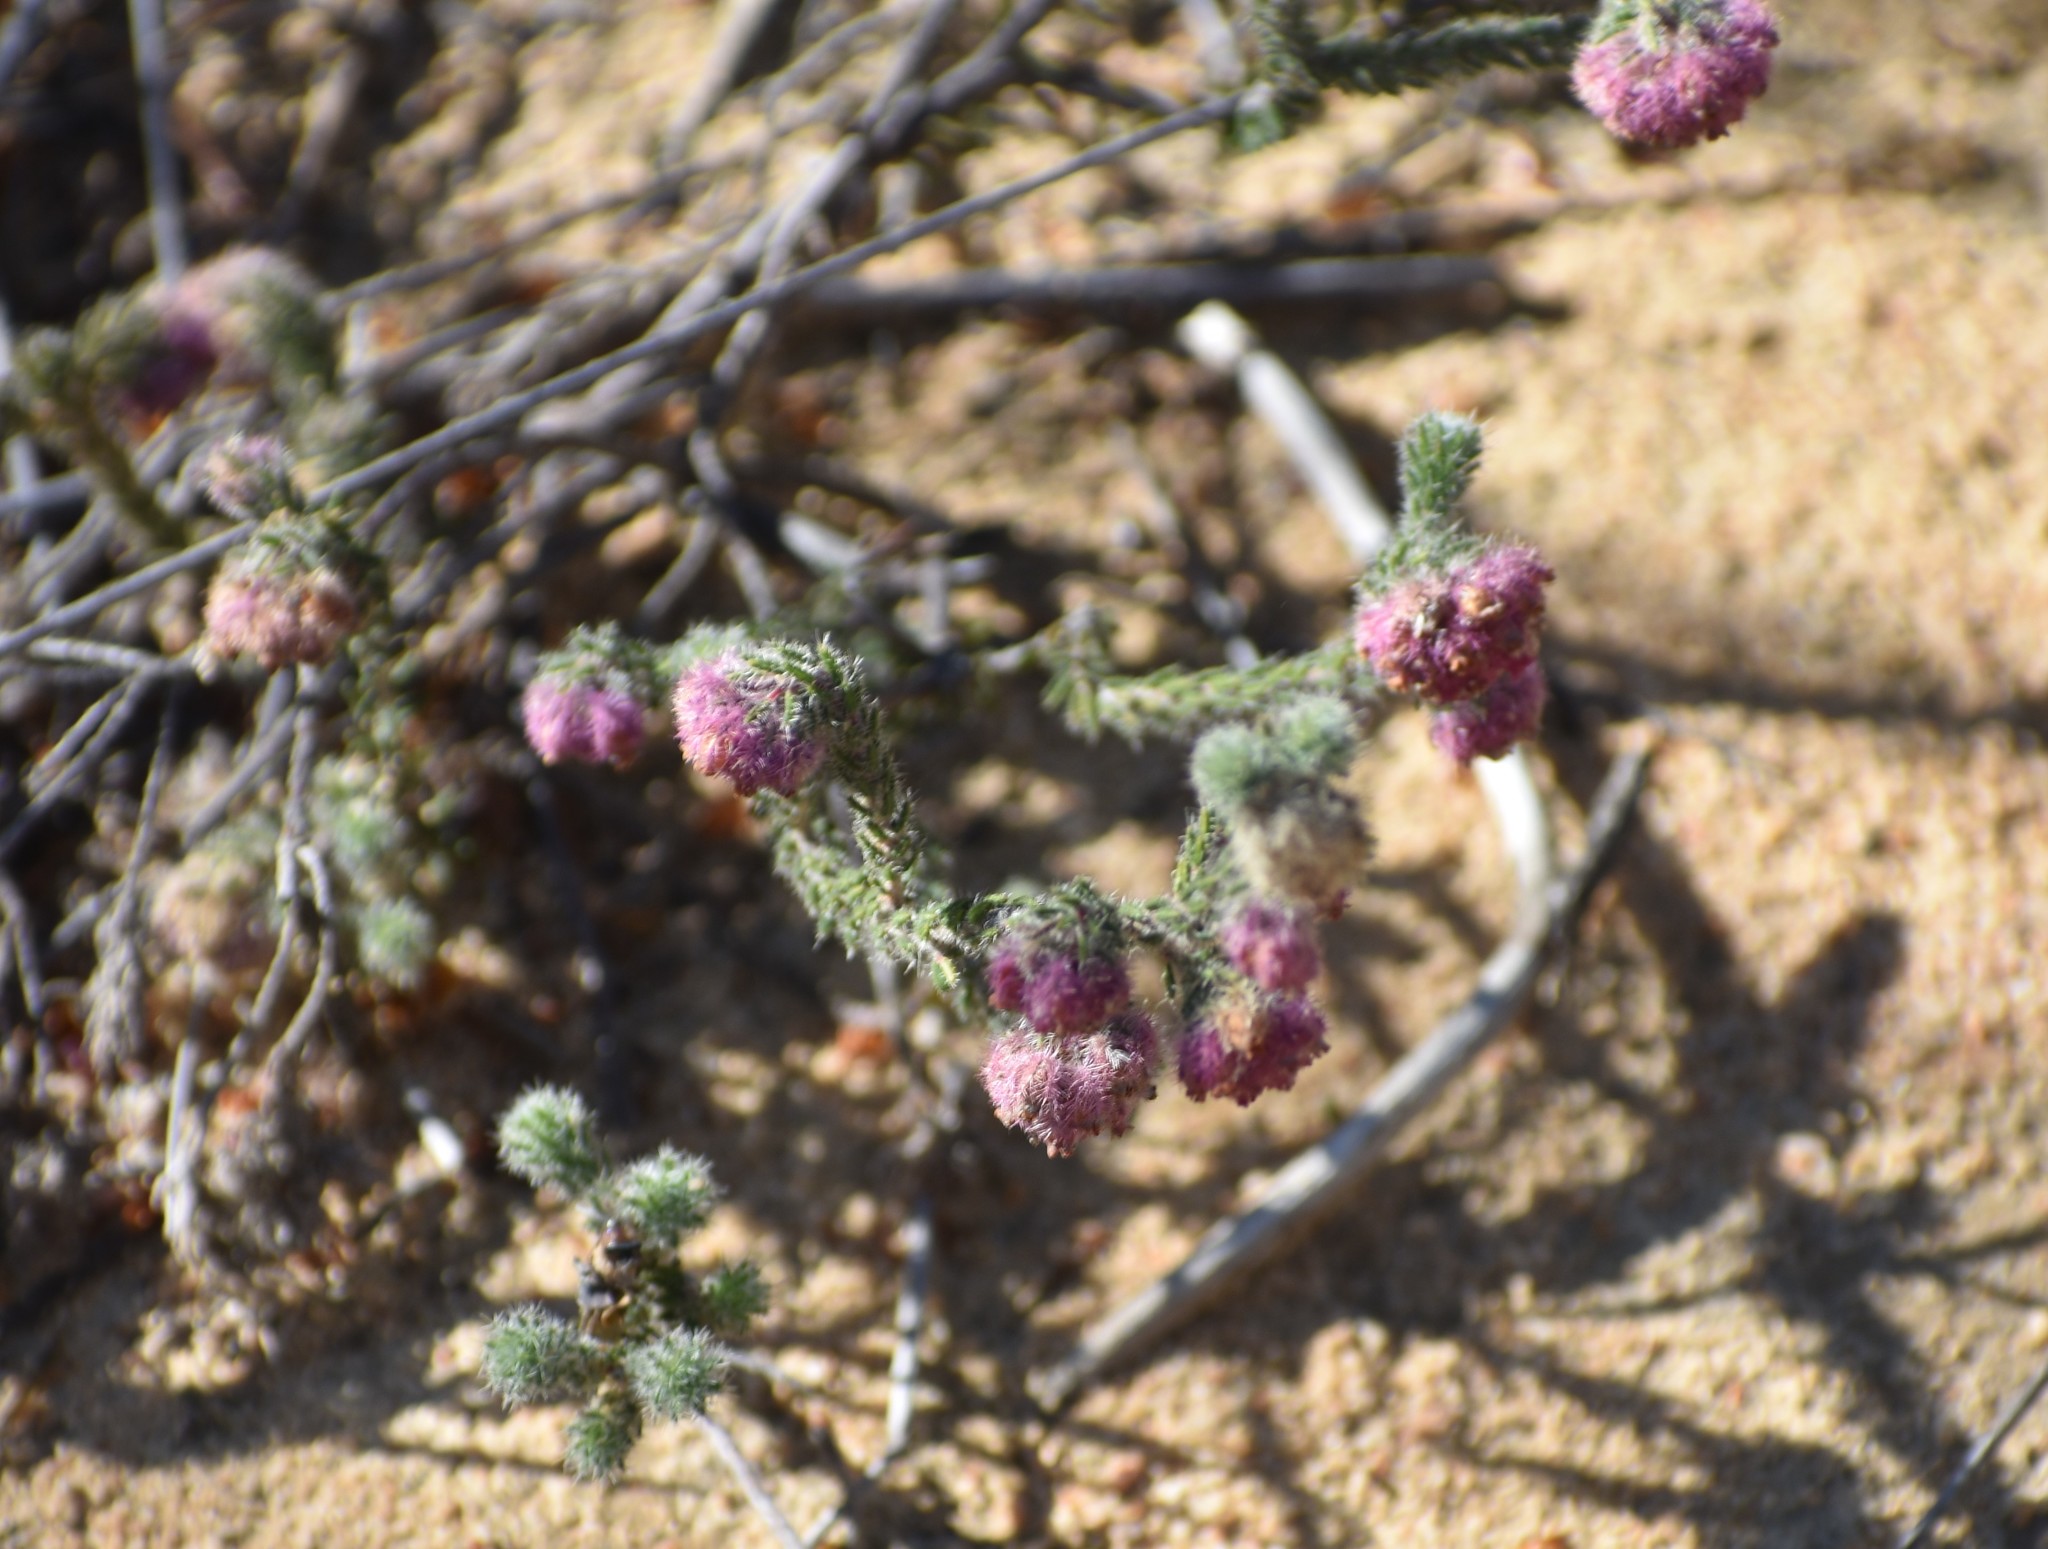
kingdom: Plantae
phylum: Tracheophyta
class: Magnoliopsida
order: Ericales
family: Ericaceae
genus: Erica
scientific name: Erica solandra
